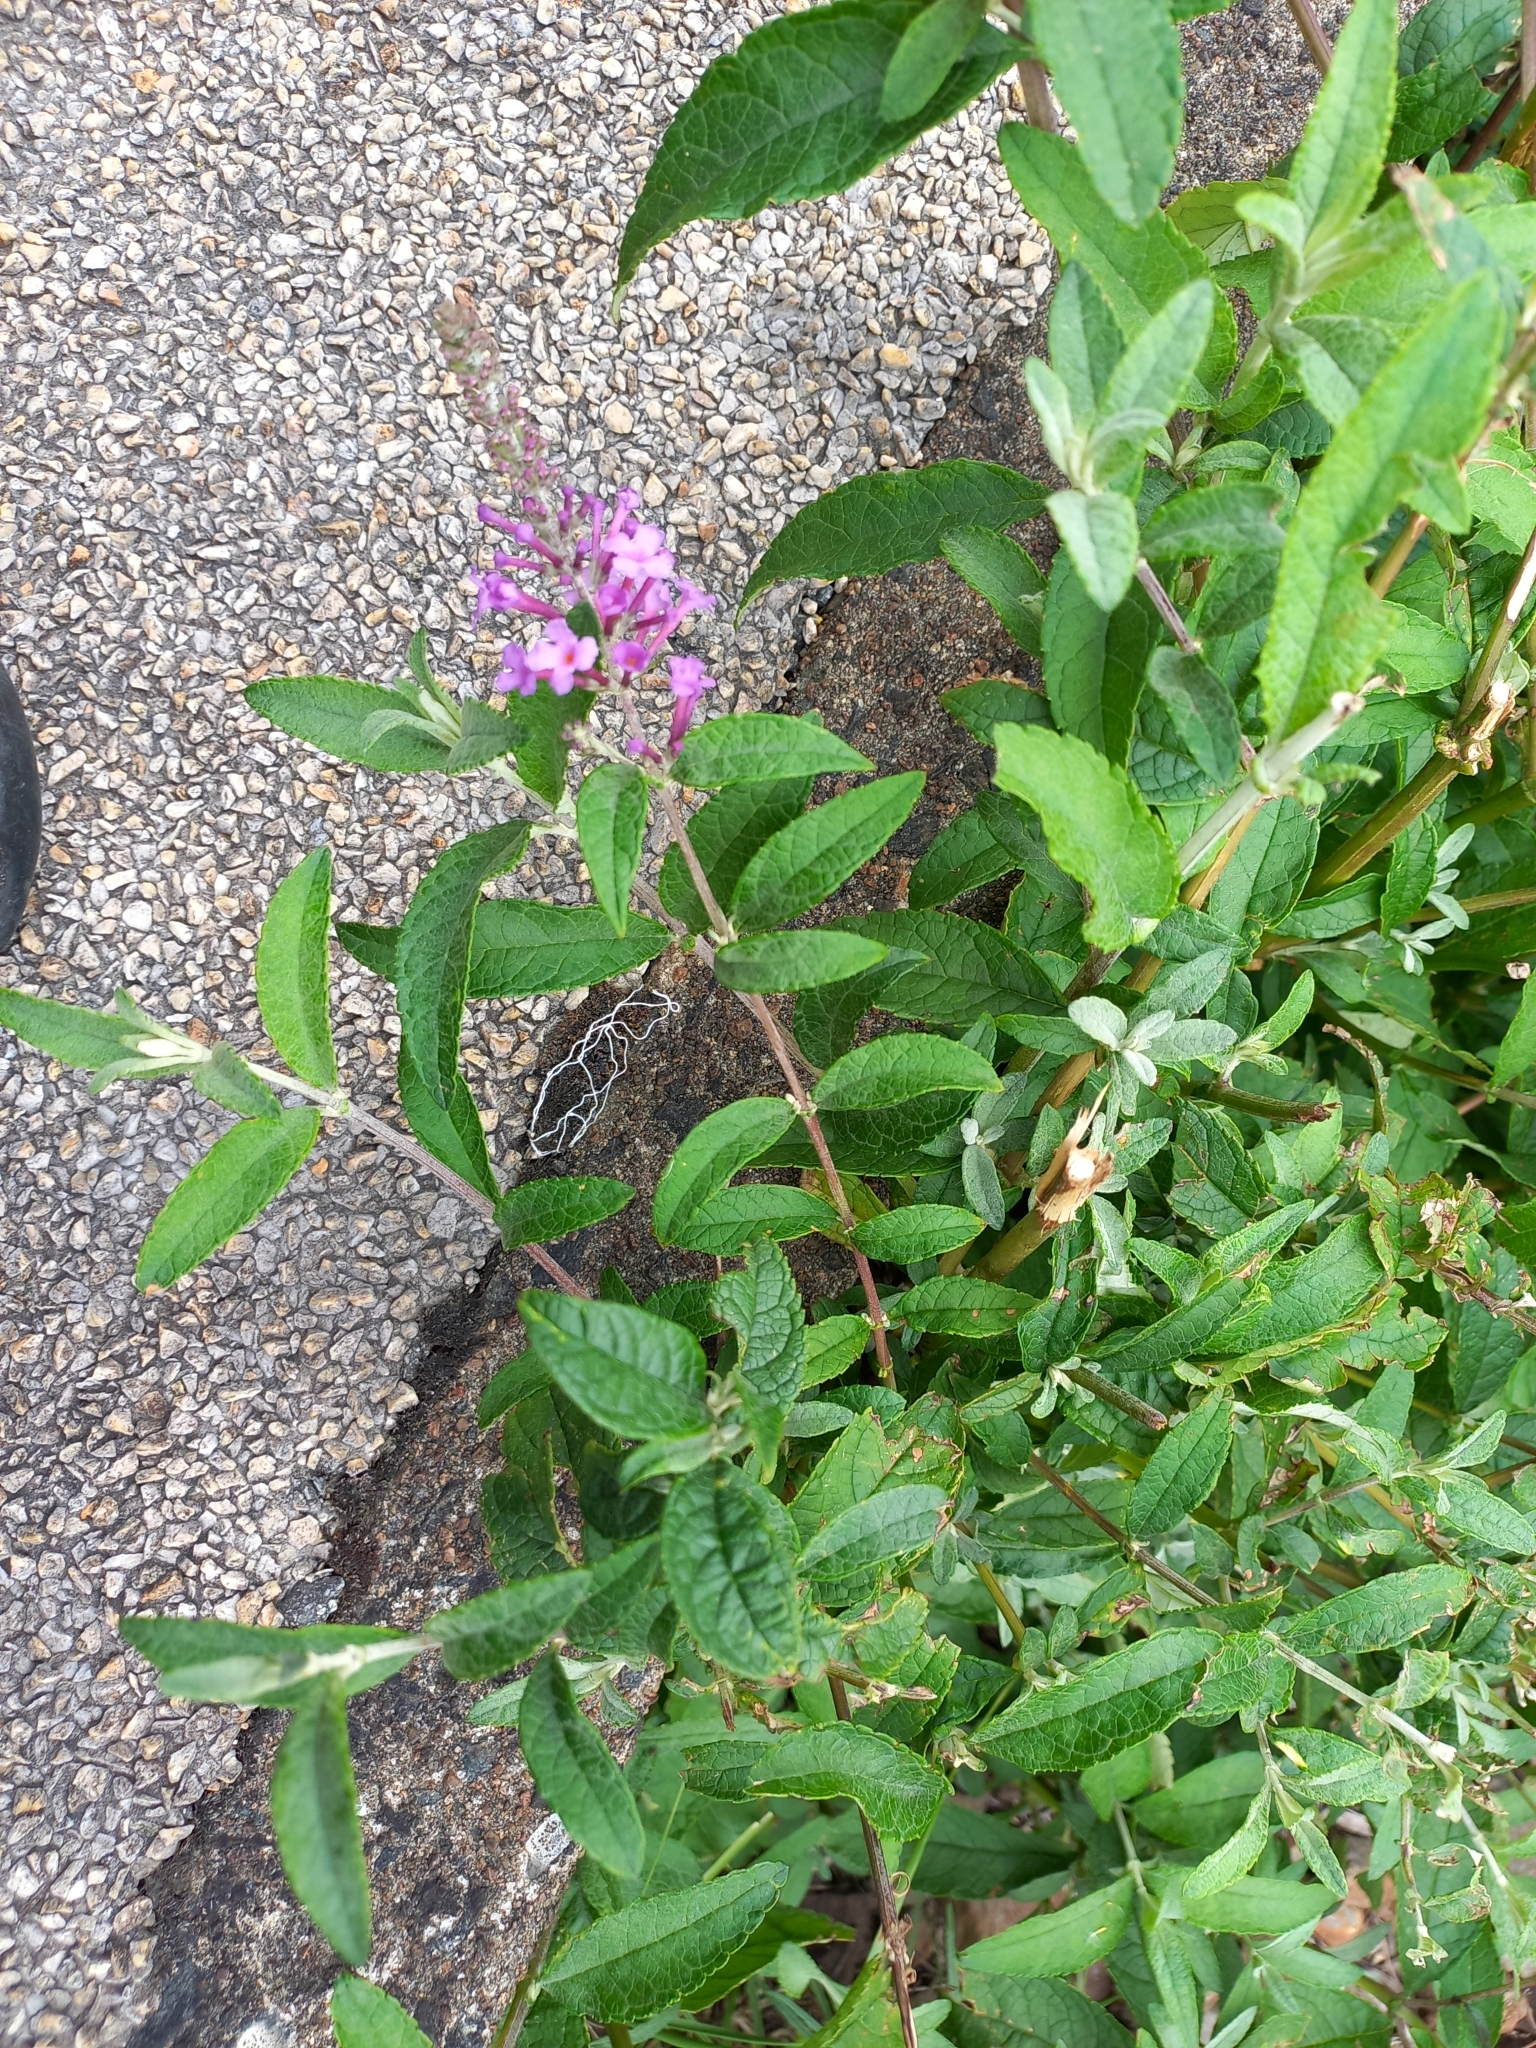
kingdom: Plantae
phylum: Tracheophyta
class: Magnoliopsida
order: Lamiales
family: Scrophulariaceae
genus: Buddleja
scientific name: Buddleja davidii
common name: Butterfly-bush
